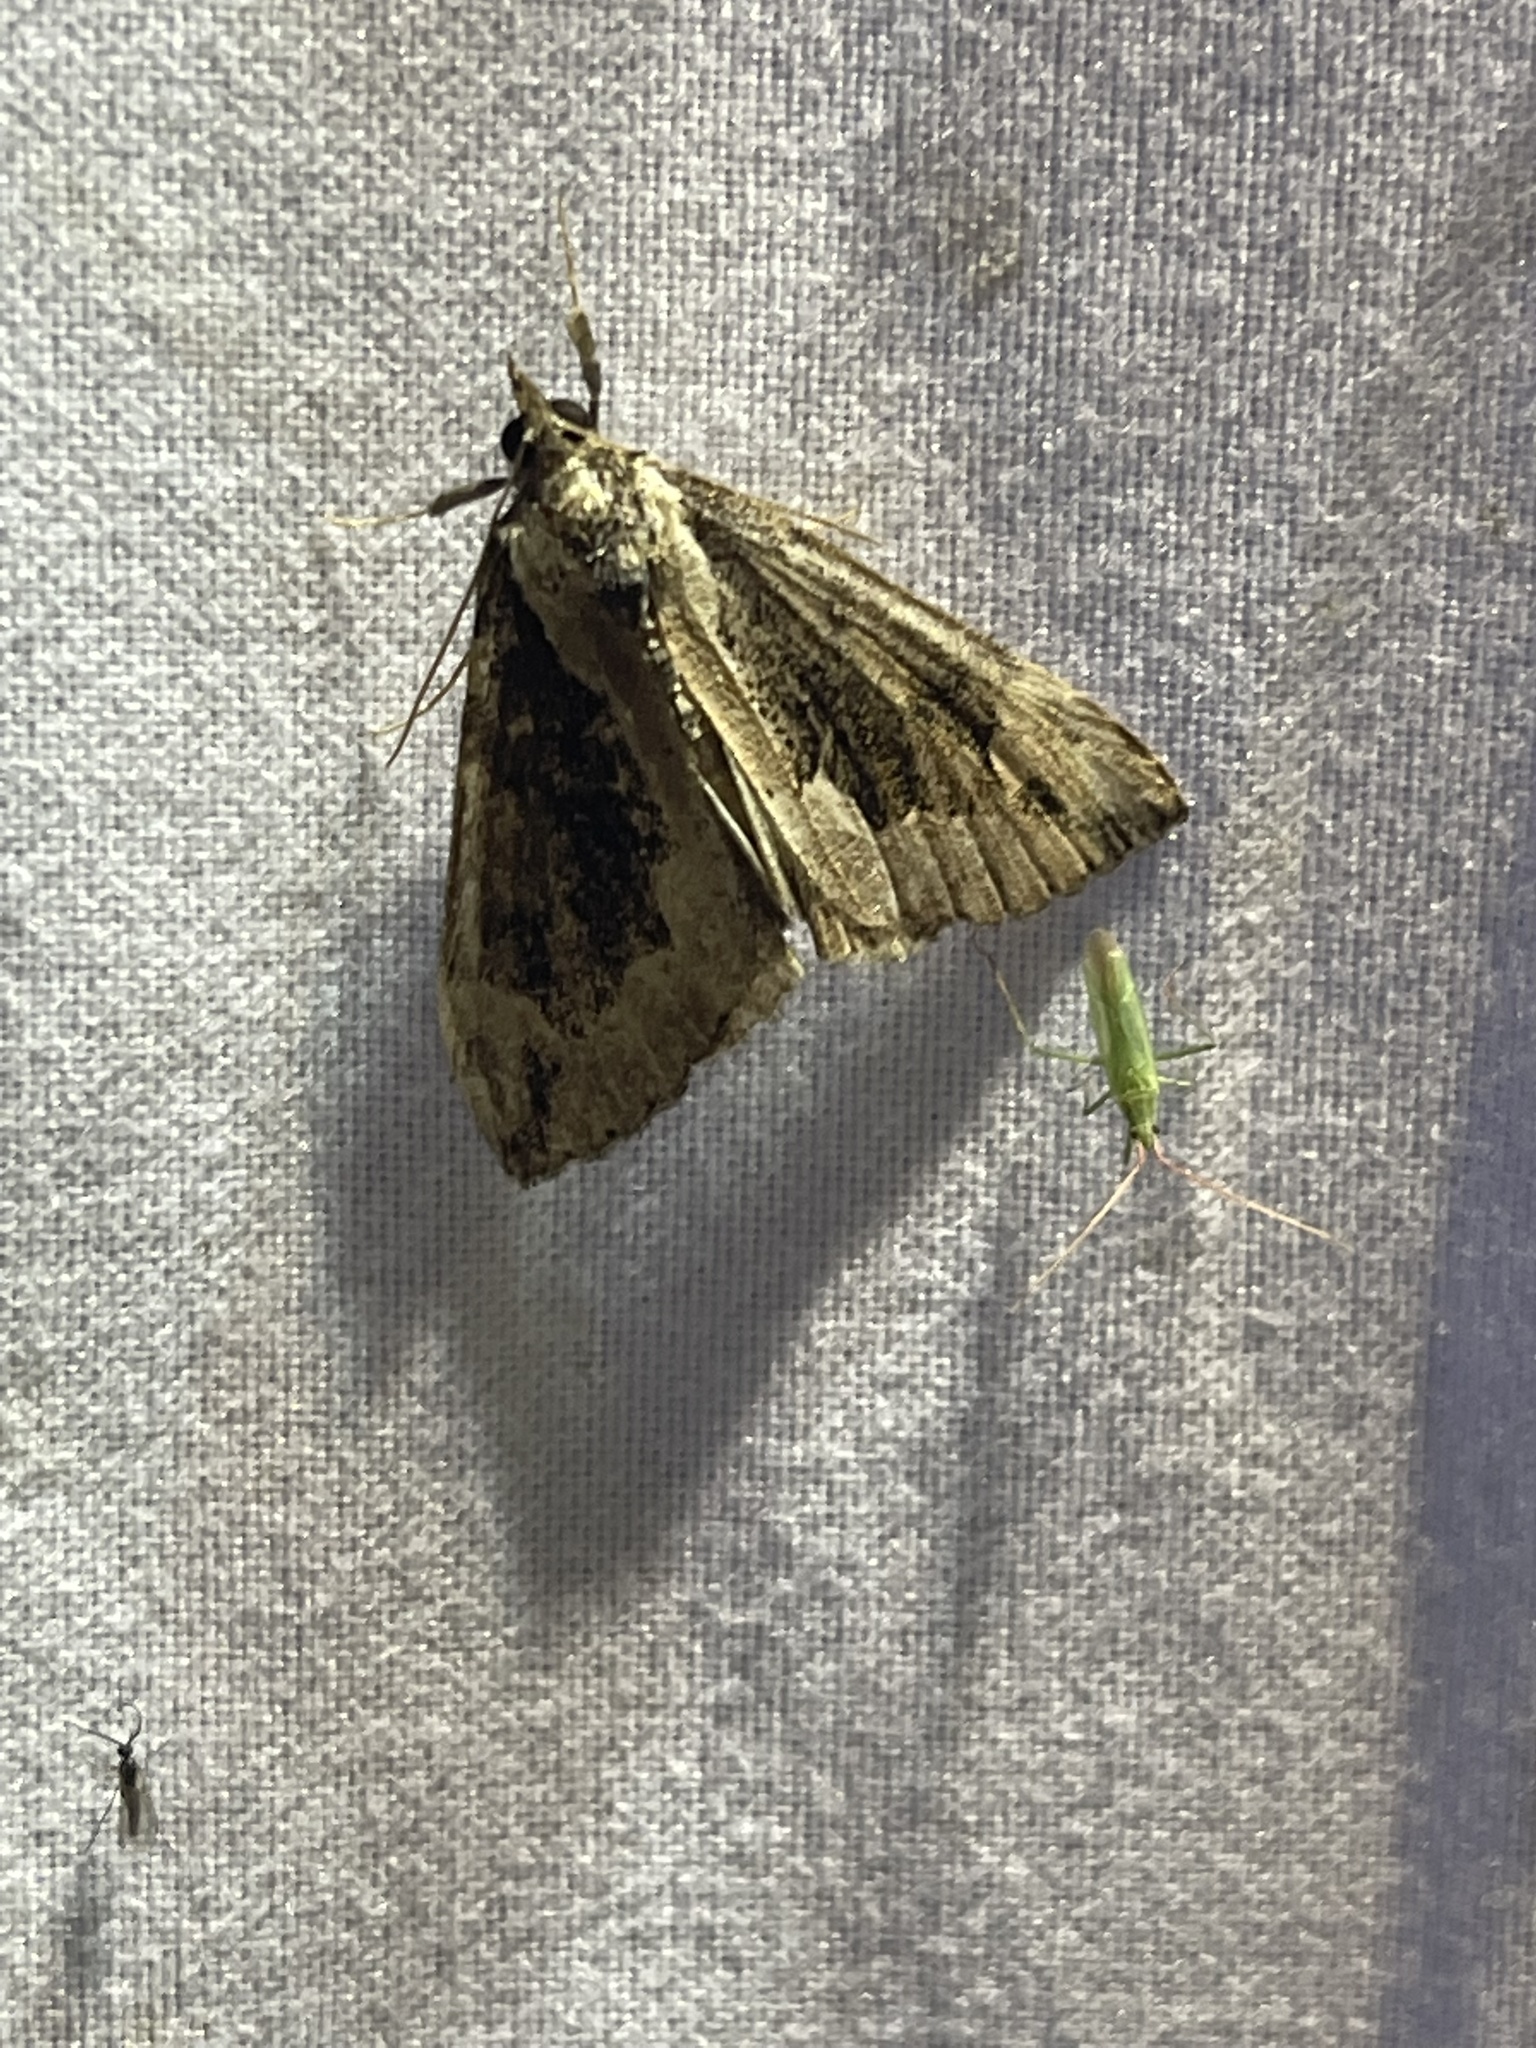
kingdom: Animalia
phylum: Arthropoda
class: Insecta
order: Lepidoptera
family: Erebidae
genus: Hypena
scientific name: Hypena baltimoralis
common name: Baltimore snout
